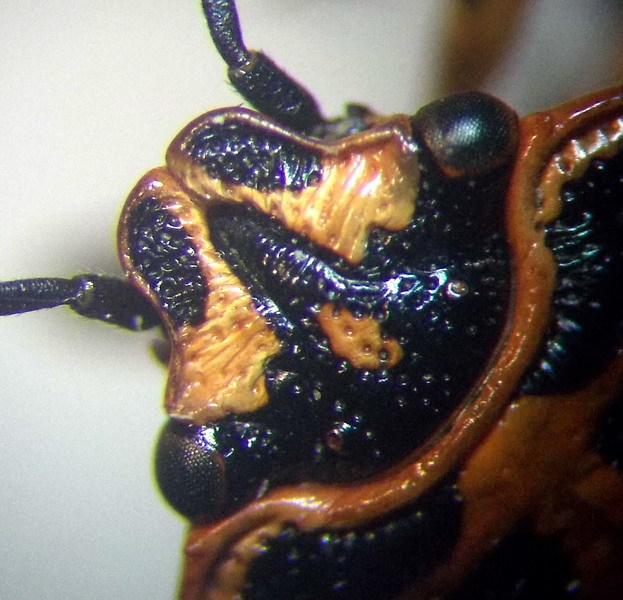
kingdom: Animalia
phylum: Arthropoda
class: Insecta
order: Hemiptera
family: Pentatomidae
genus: Eurydema
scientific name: Eurydema ventralis
